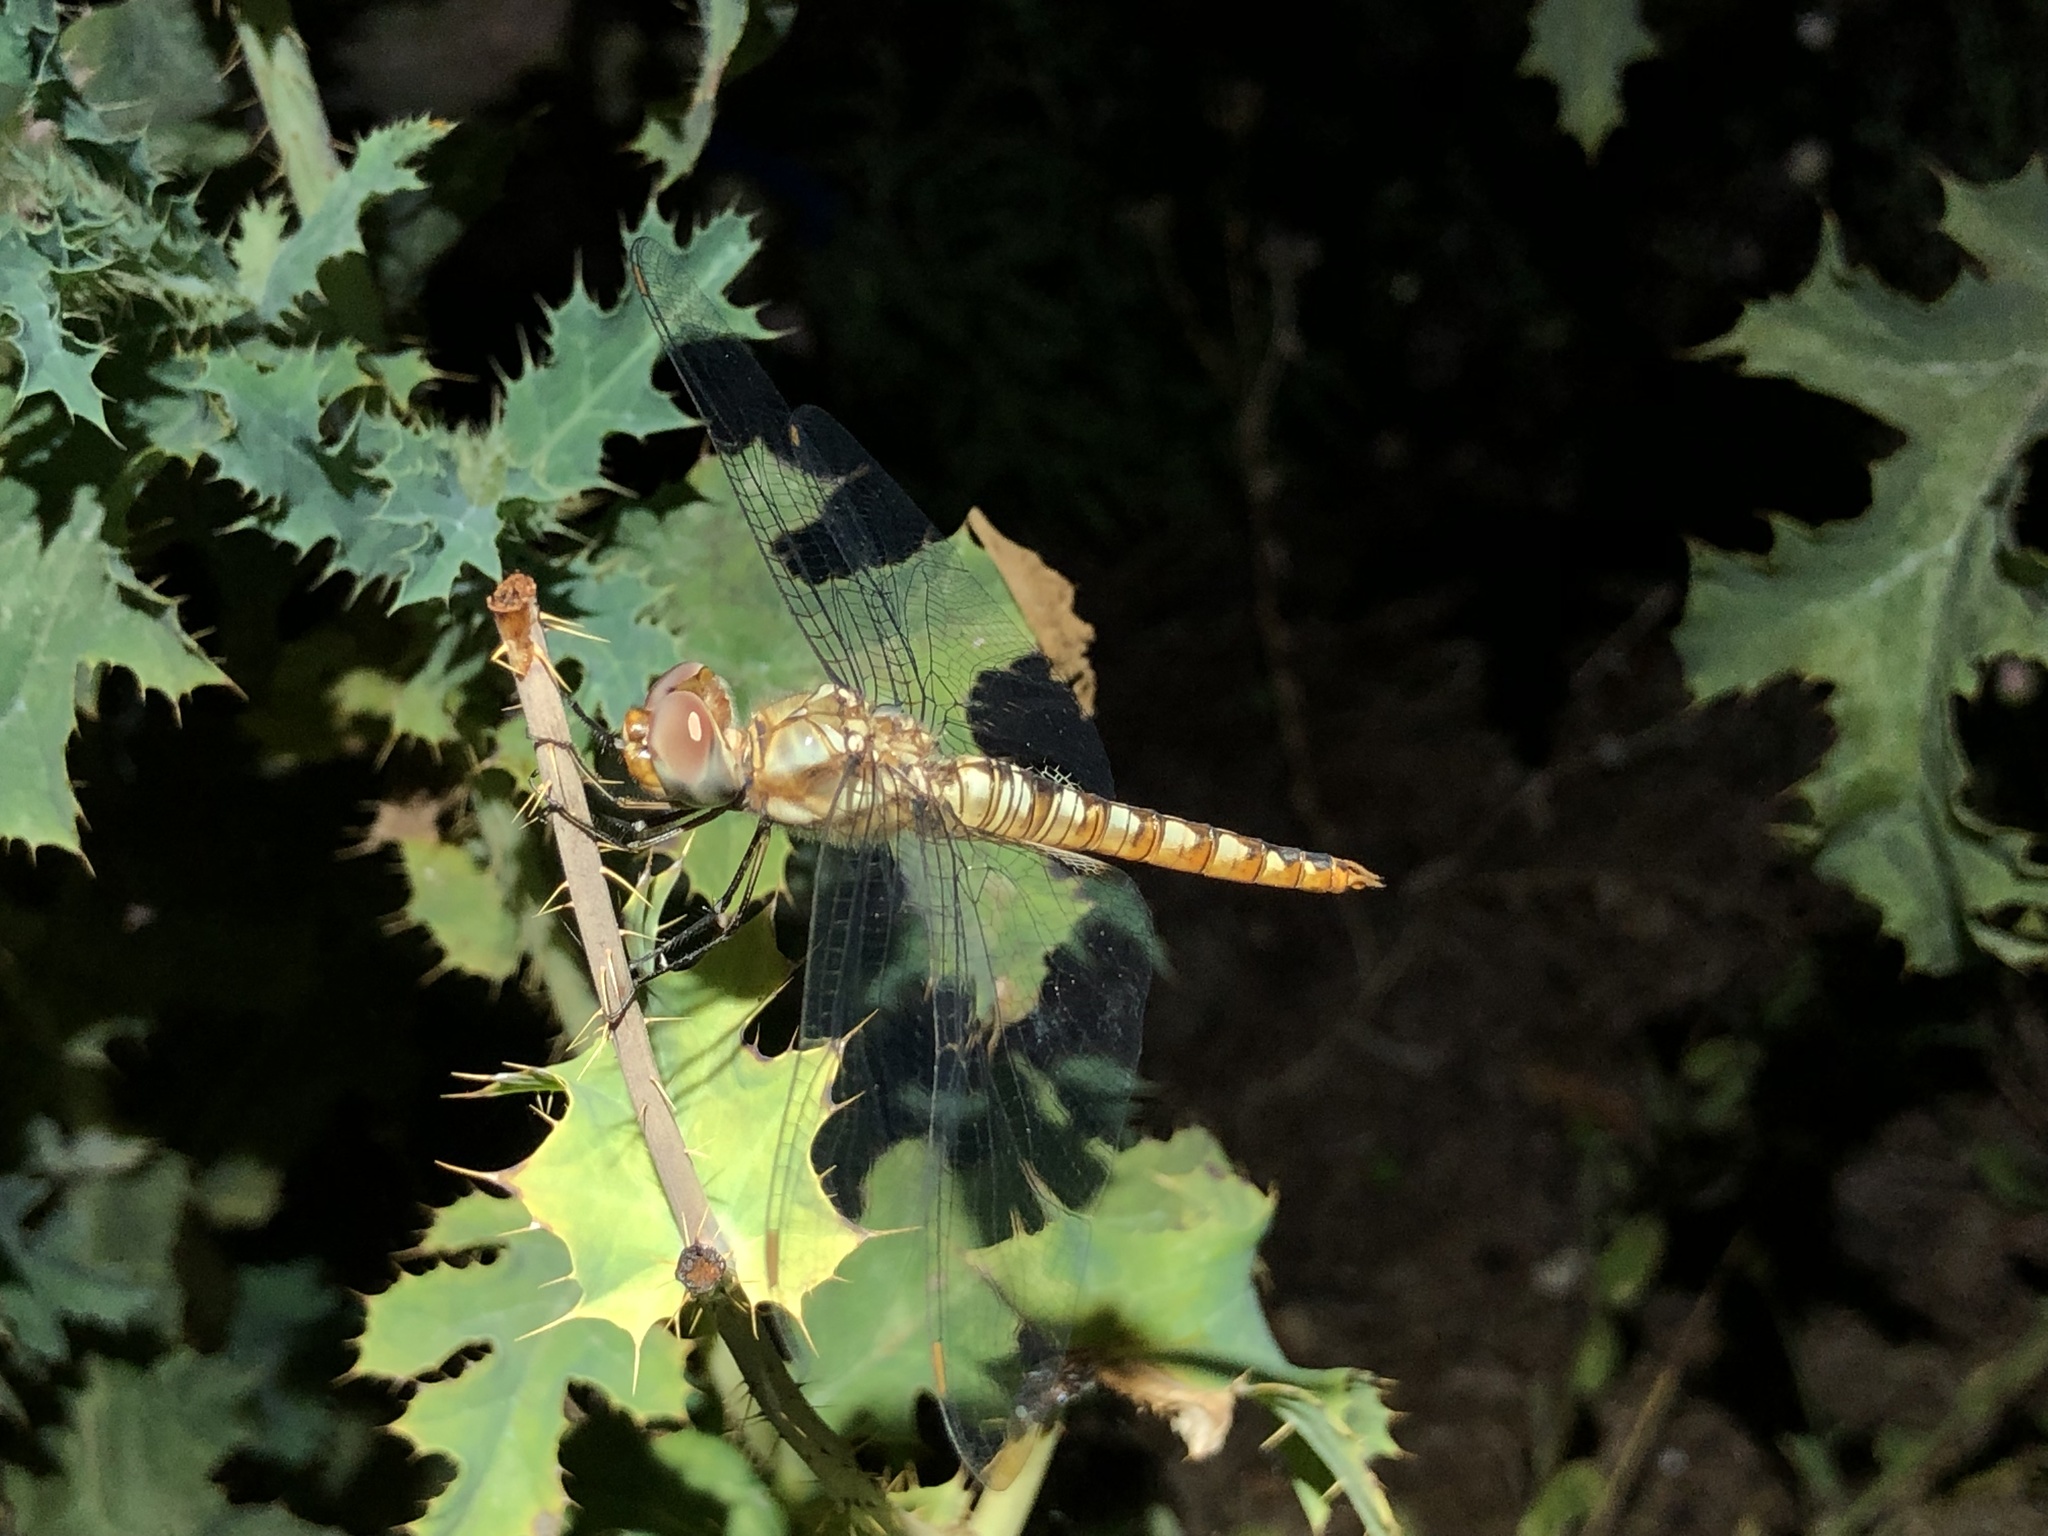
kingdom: Animalia
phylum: Arthropoda
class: Insecta
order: Odonata
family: Libellulidae
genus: Pantala
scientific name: Pantala hymenaea
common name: Spot-winged glider
